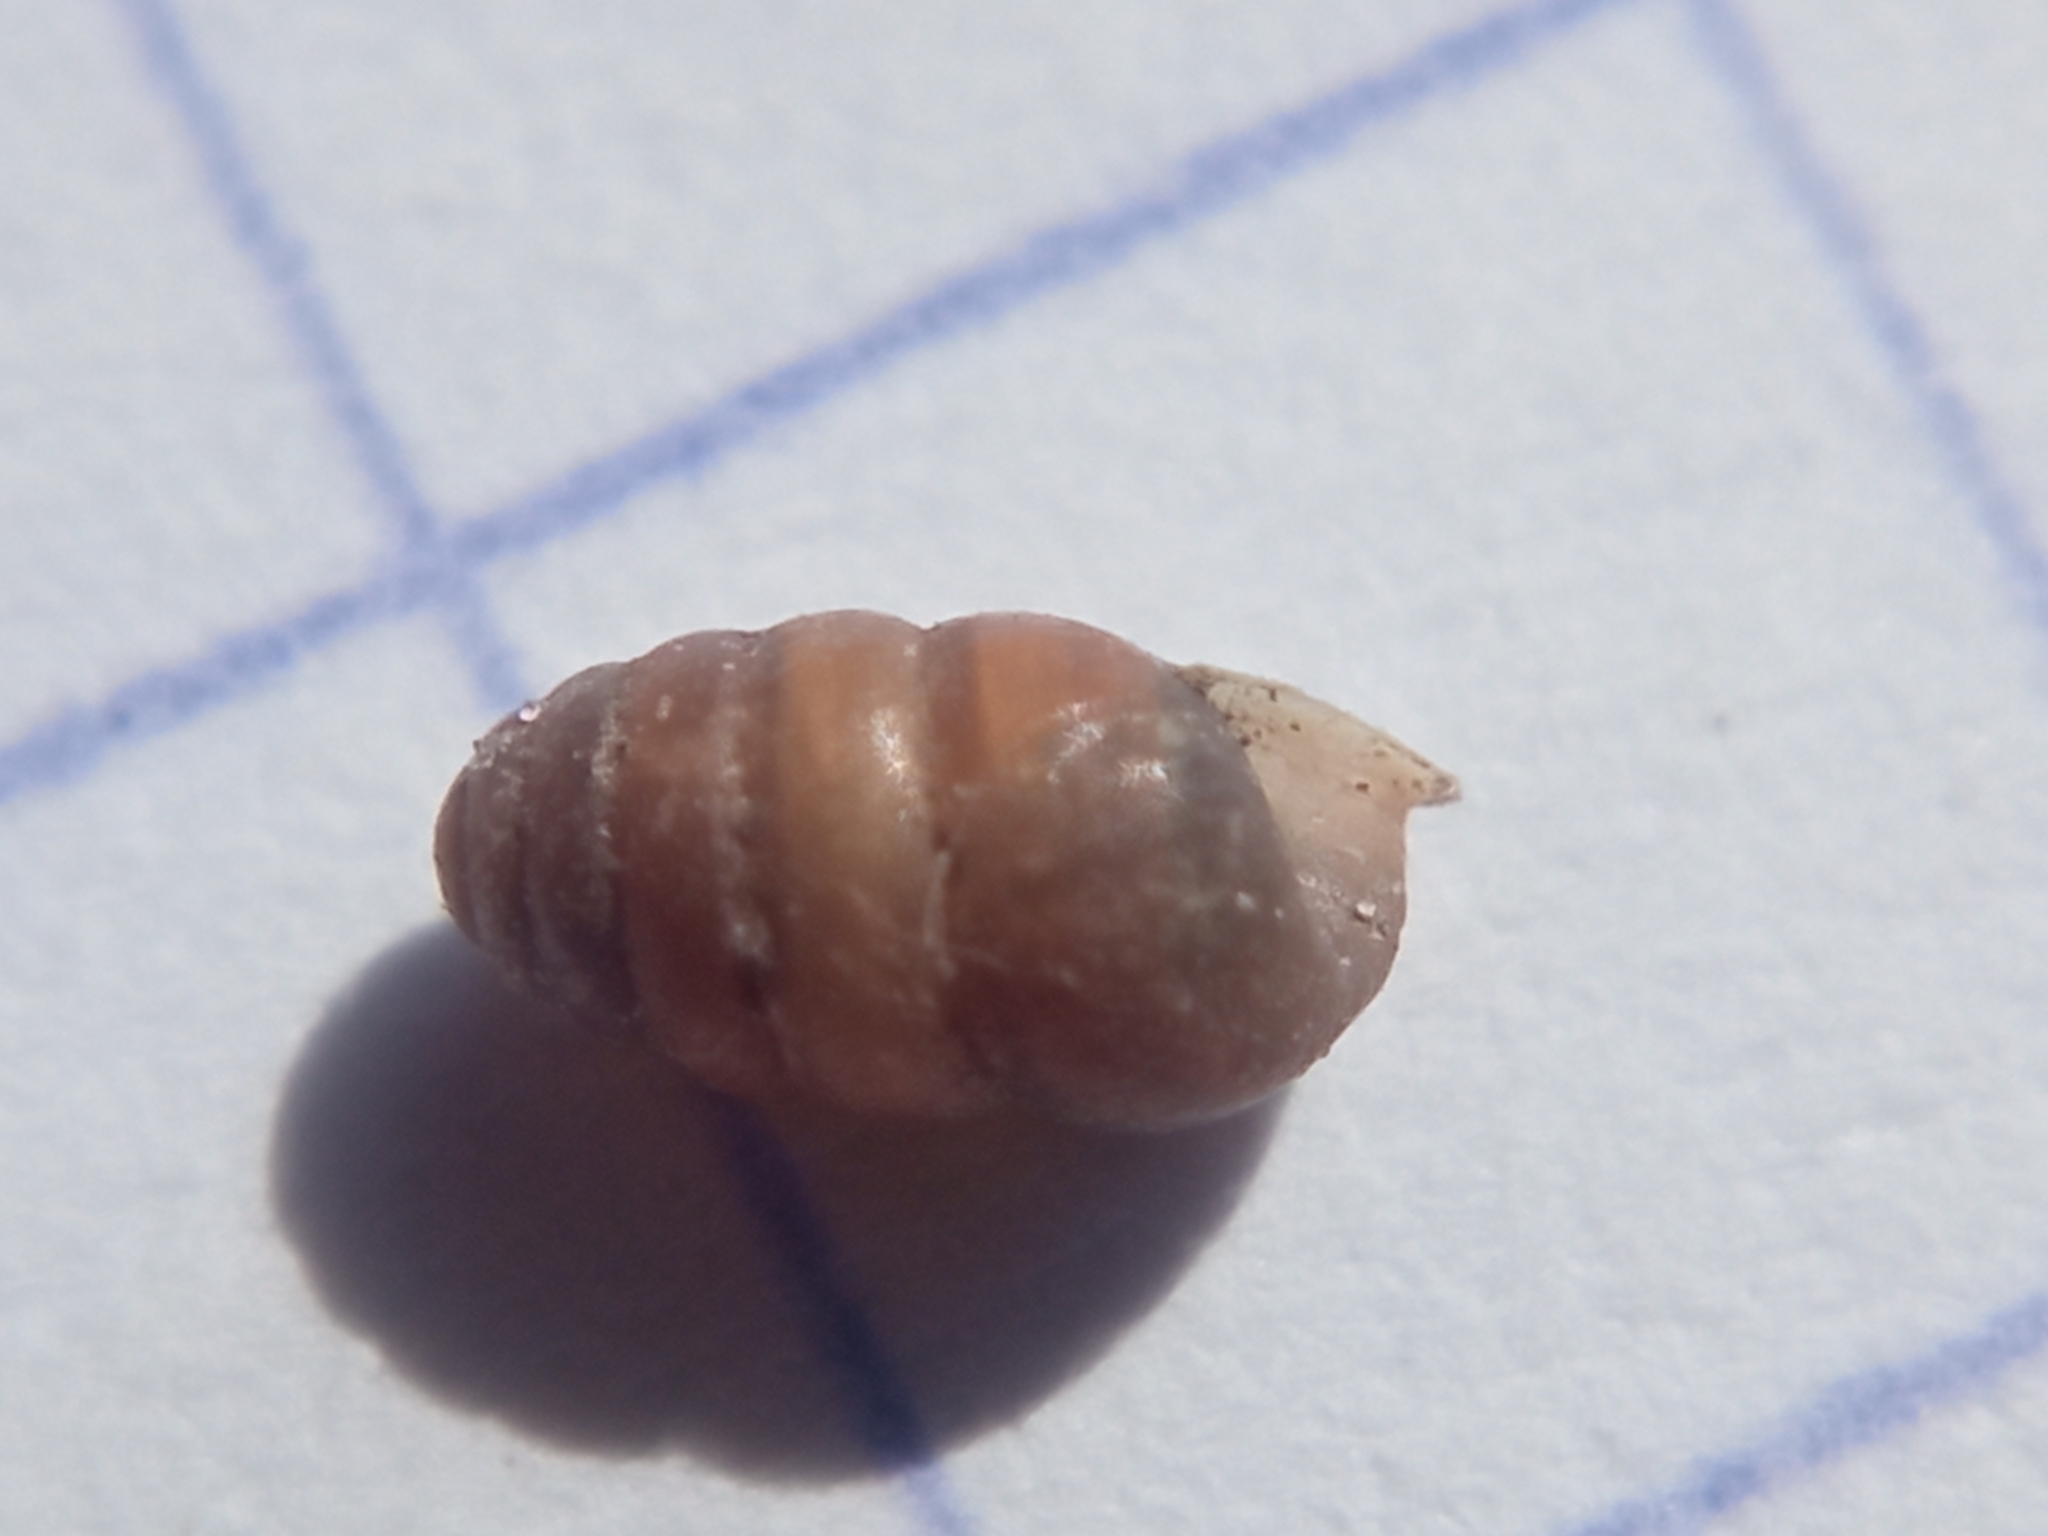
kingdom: Animalia
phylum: Mollusca
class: Gastropoda
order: Stylommatophora
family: Lauriidae
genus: Lauria
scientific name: Lauria cylindracea
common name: Common chrysalis snail
